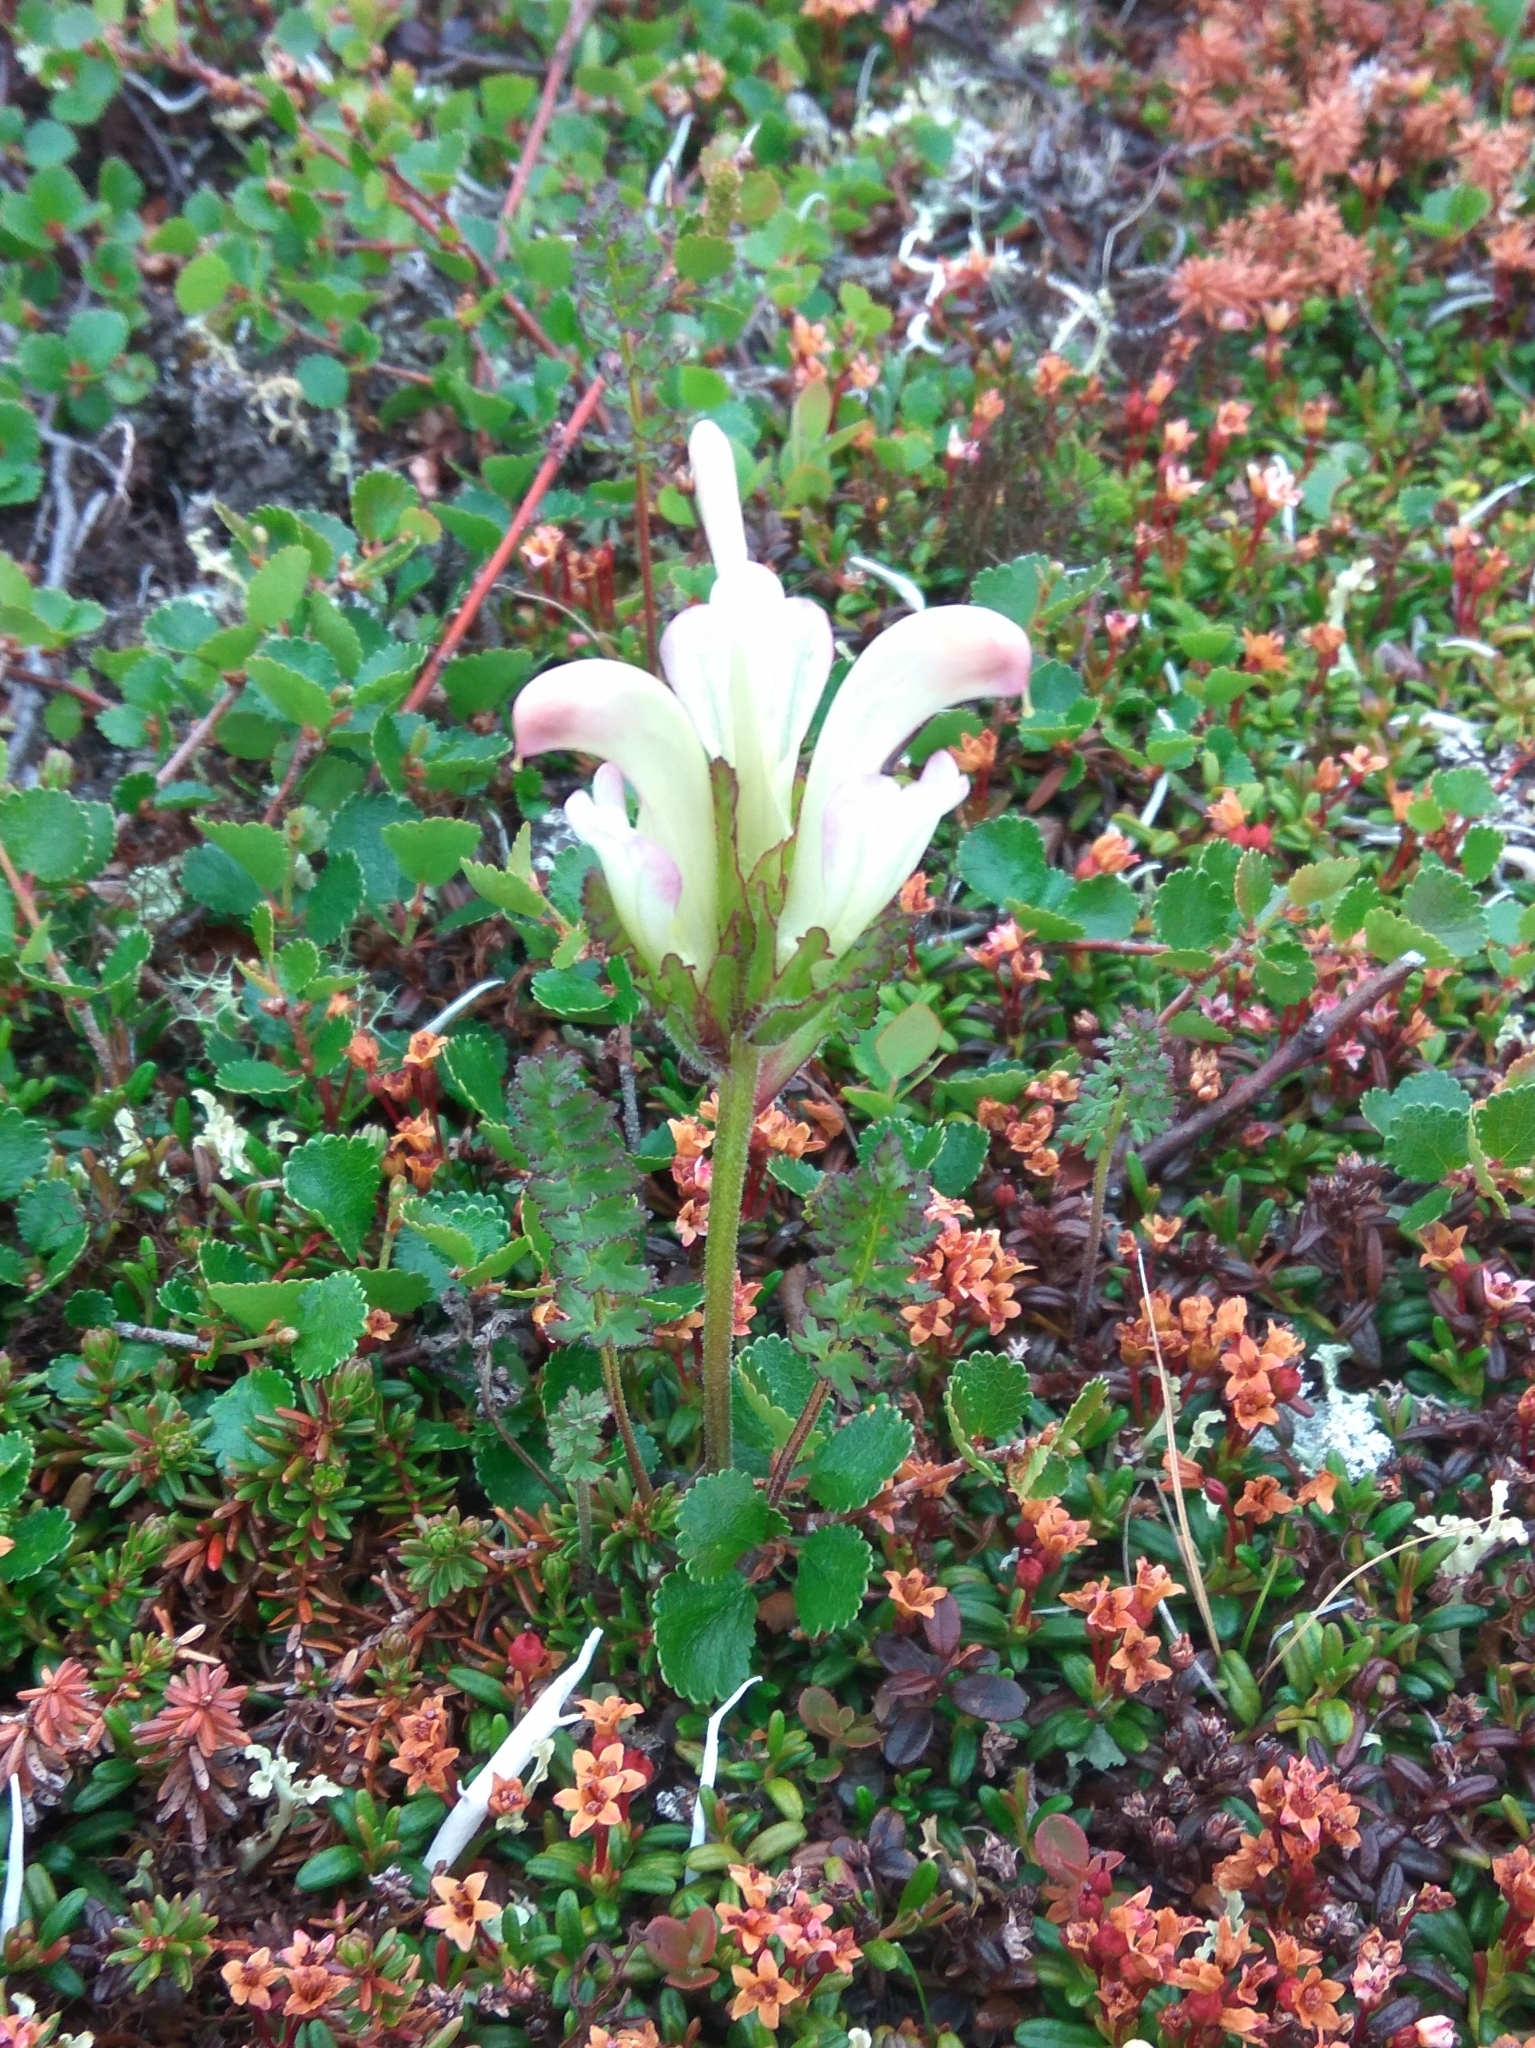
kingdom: Plantae
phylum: Tracheophyta
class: Magnoliopsida
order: Lamiales
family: Orobanchaceae
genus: Pedicularis
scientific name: Pedicularis capitata
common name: Capitate lousewort
